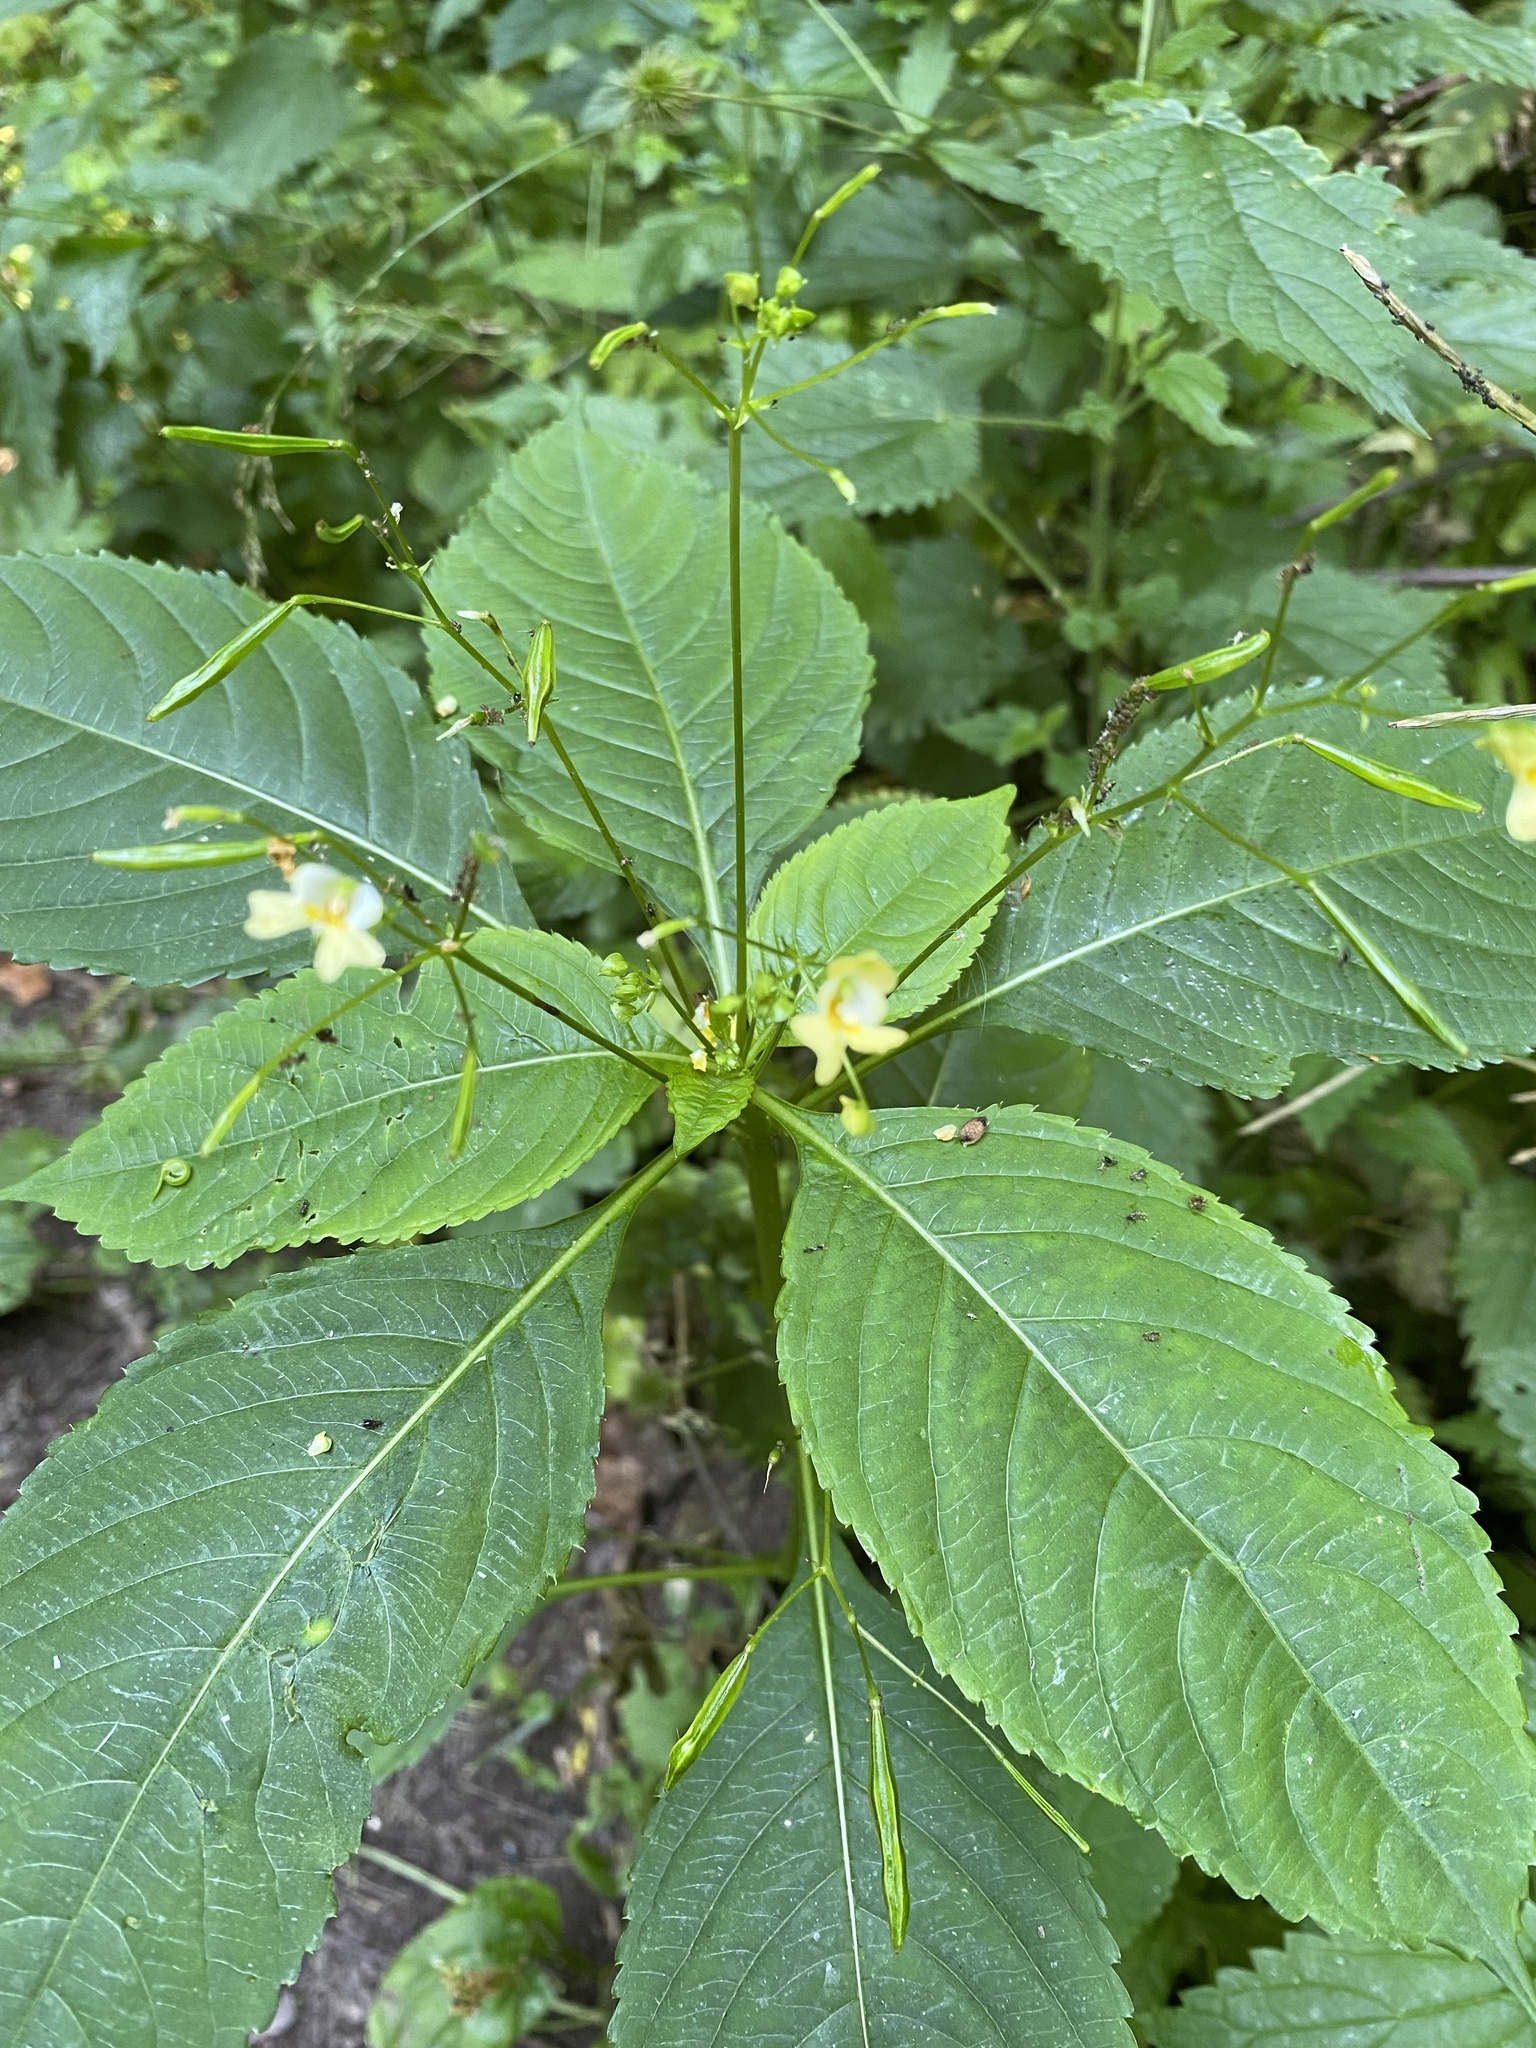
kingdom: Plantae
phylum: Tracheophyta
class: Magnoliopsida
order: Ericales
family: Balsaminaceae
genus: Impatiens
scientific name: Impatiens parviflora
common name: Small balsam
